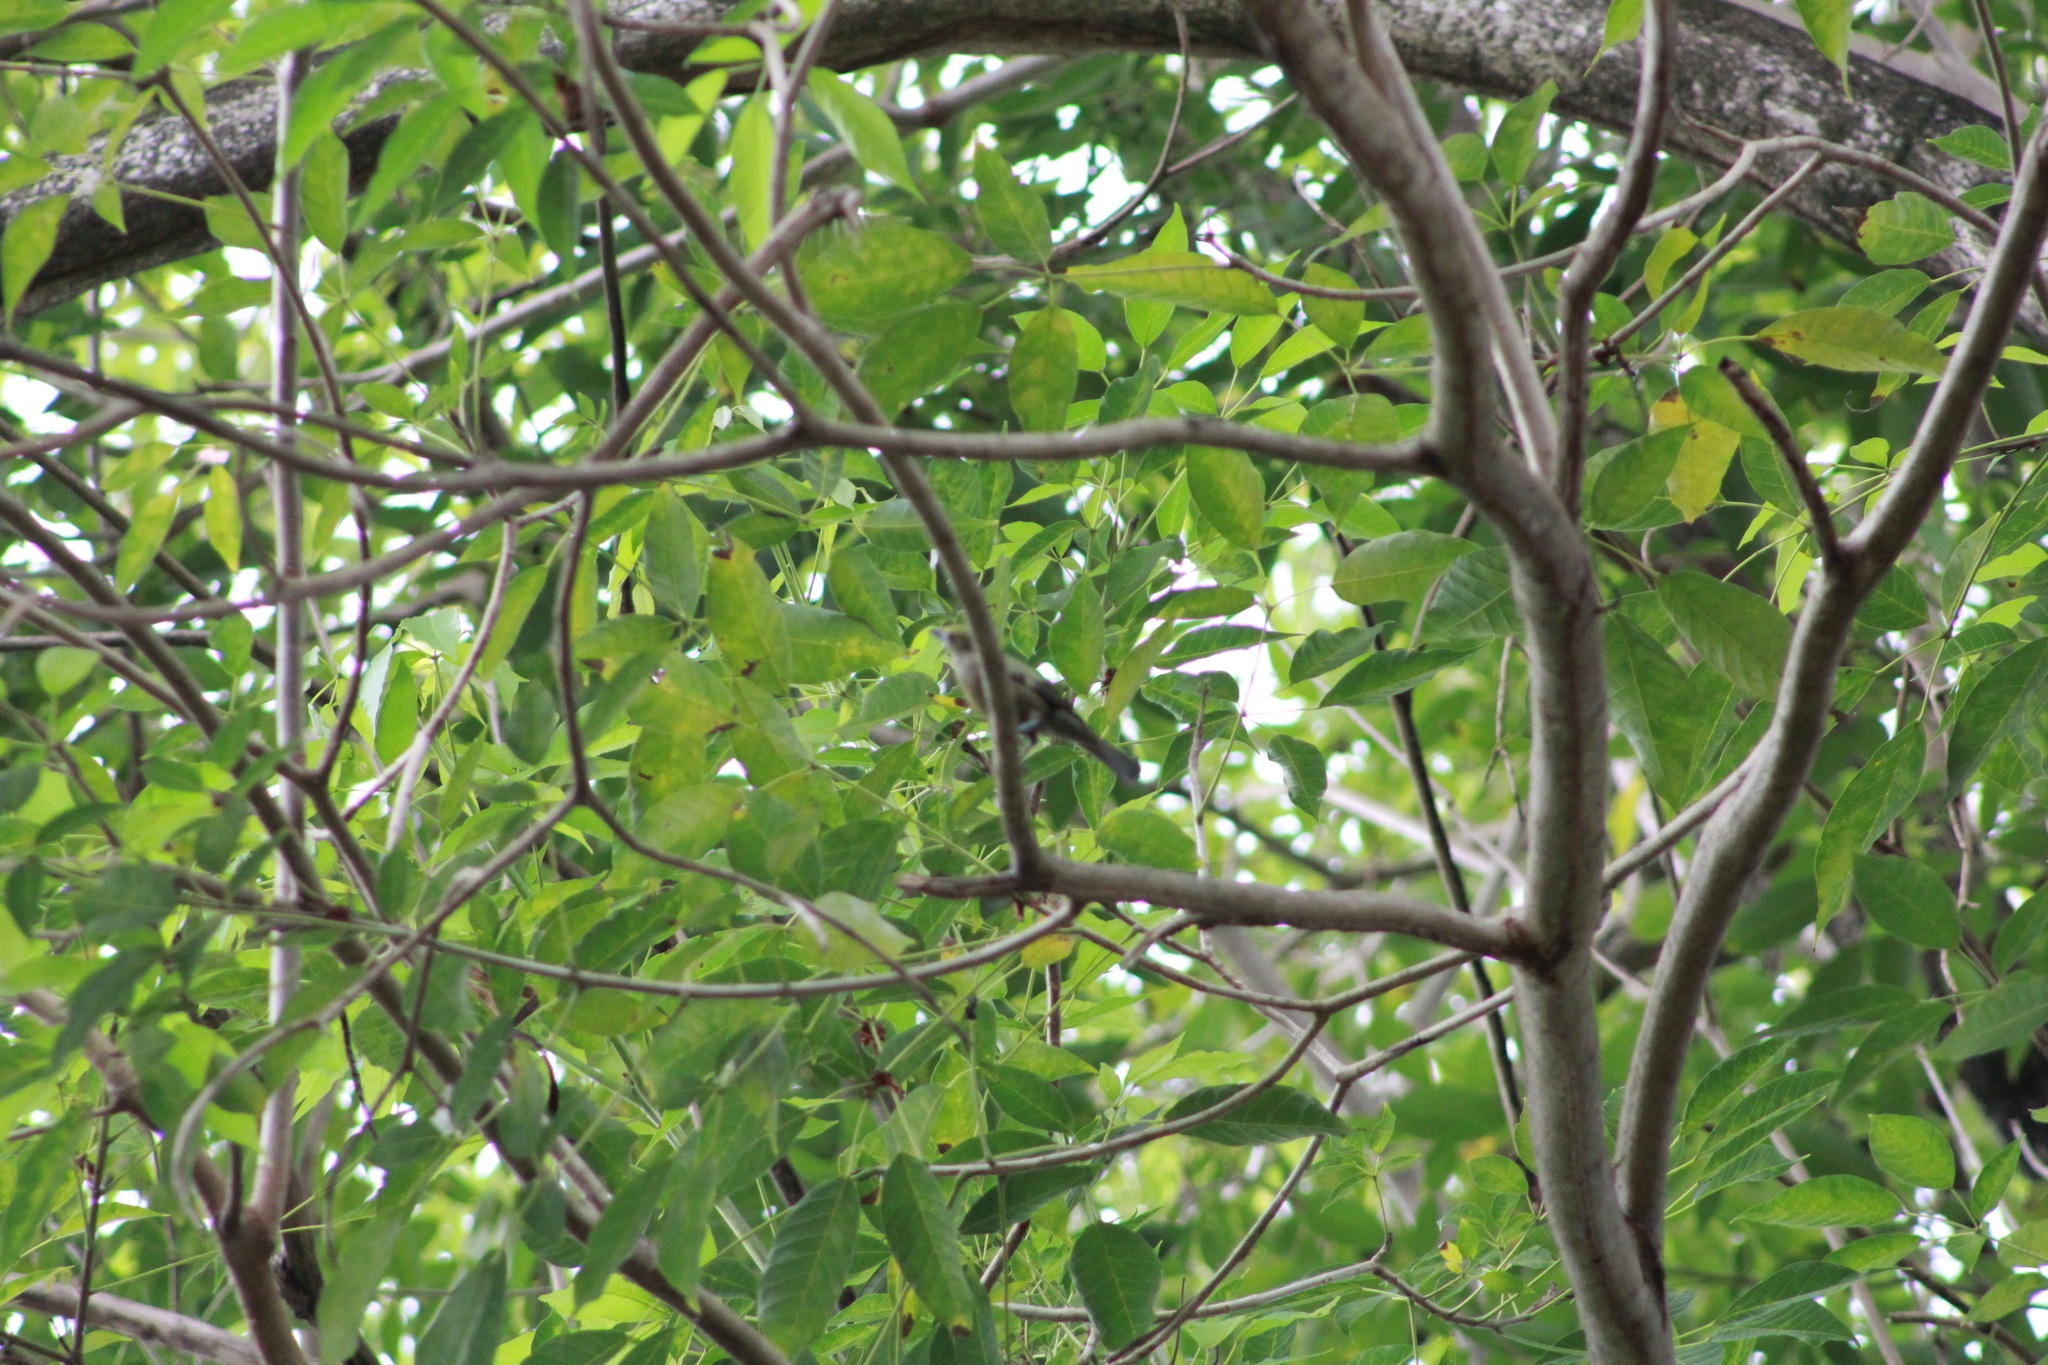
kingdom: Animalia
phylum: Chordata
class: Aves
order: Passeriformes
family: Thraupidae
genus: Thraupis
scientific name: Thraupis palmarum
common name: Palm tanager
